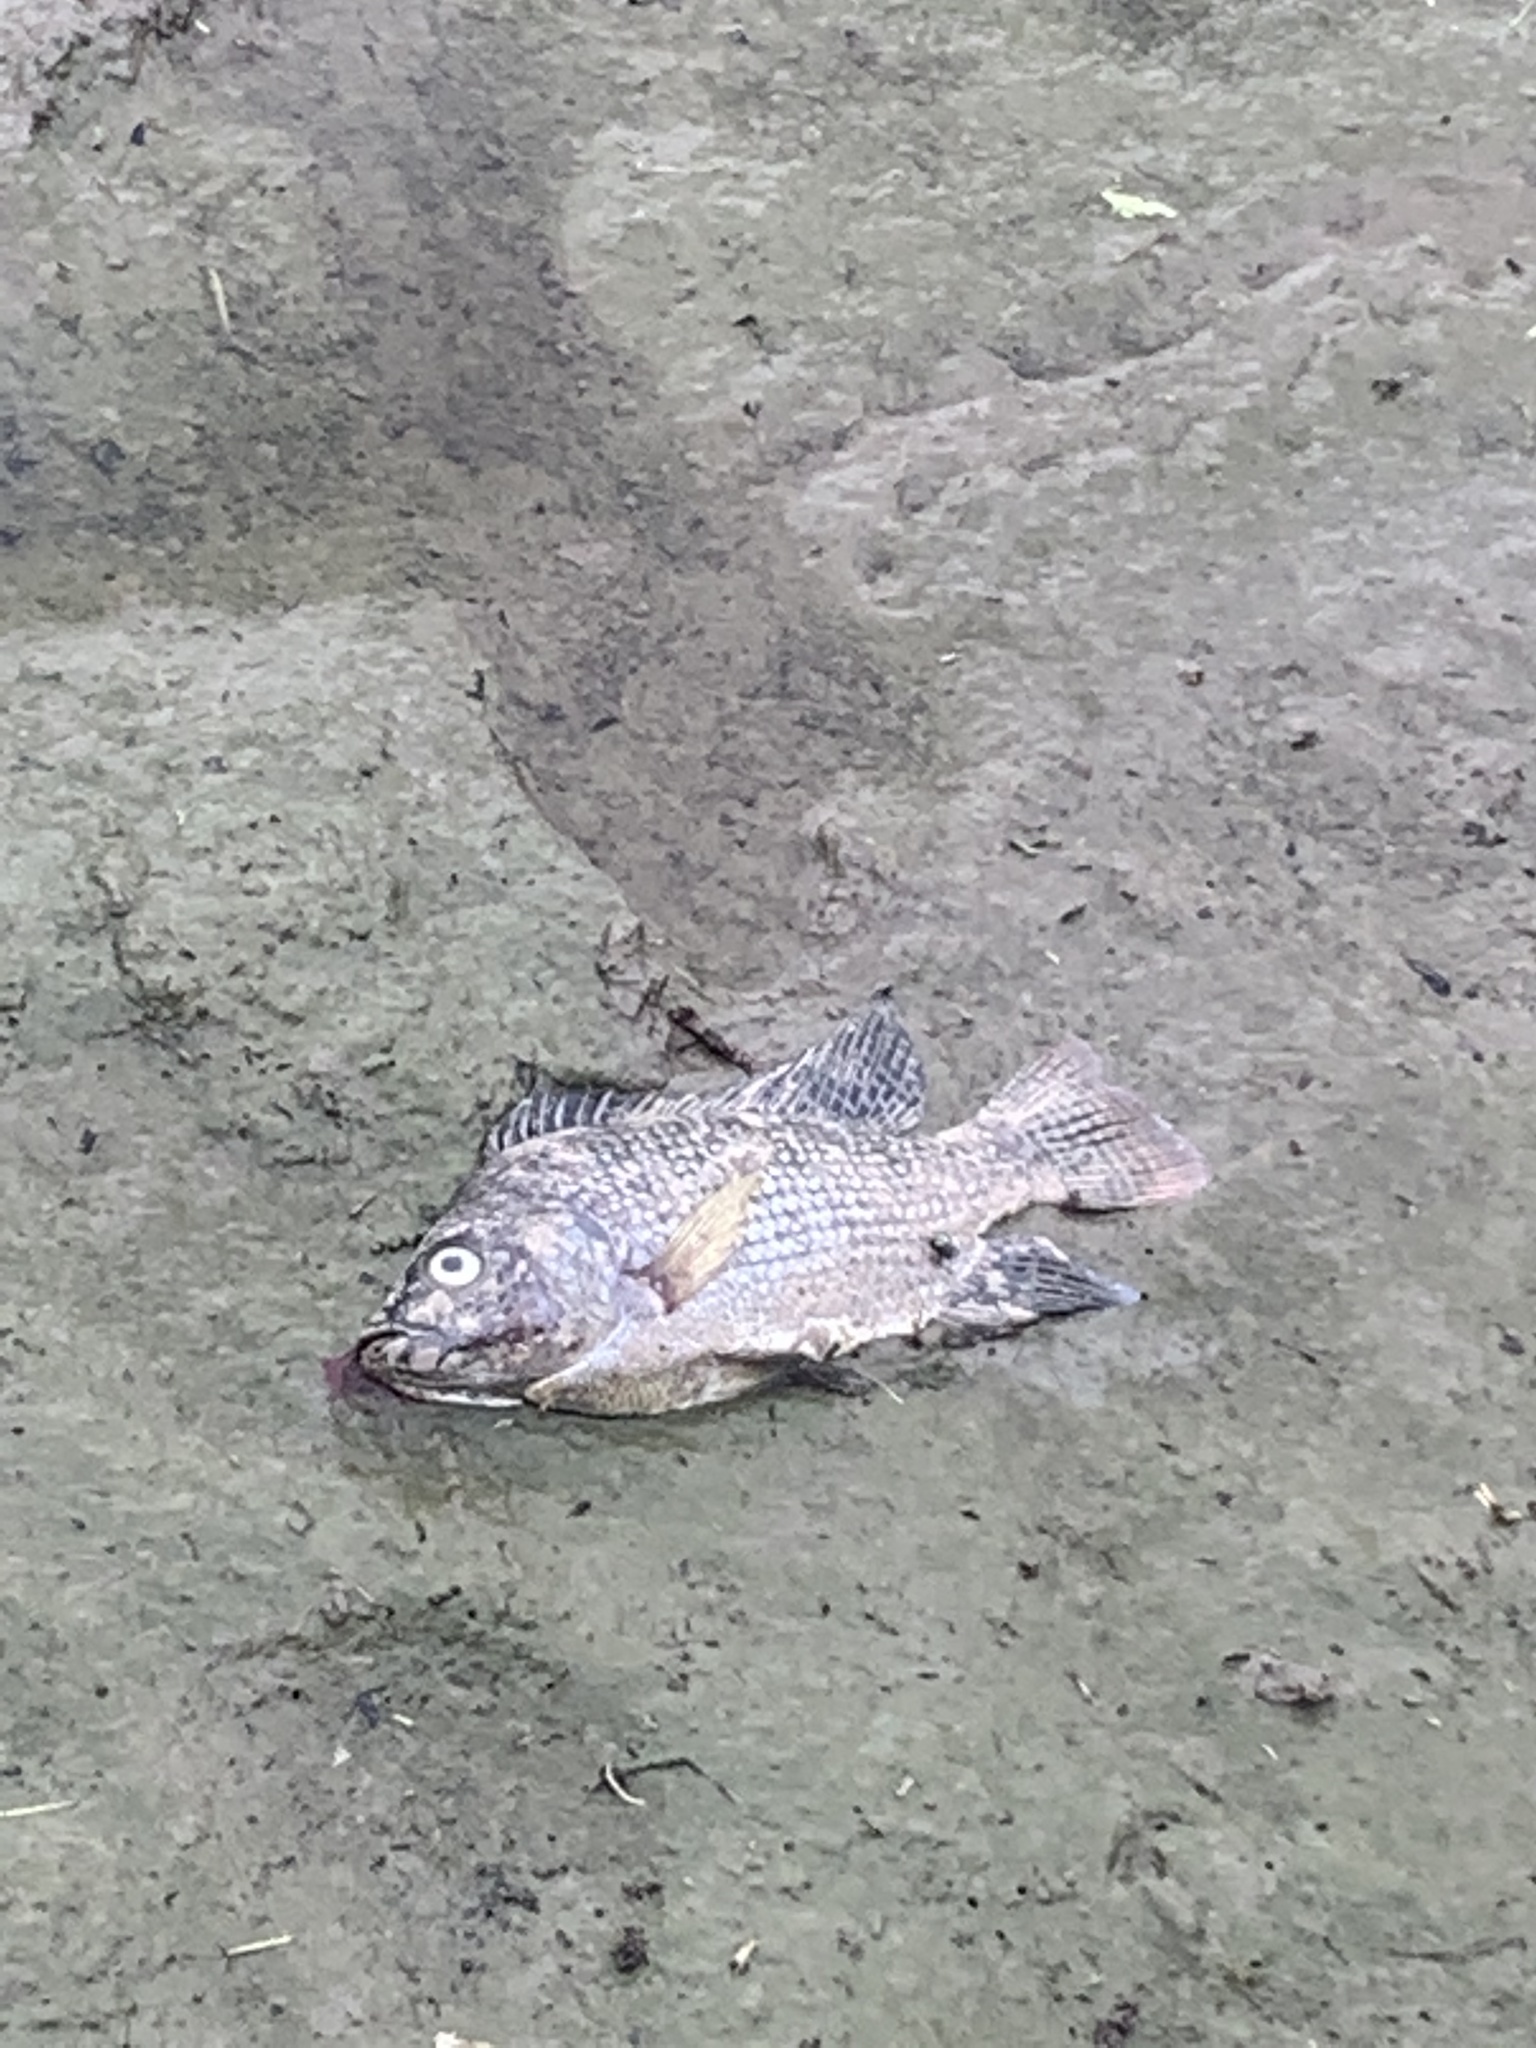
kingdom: Animalia
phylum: Chordata
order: Perciformes
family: Cichlidae
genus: Oreochromis
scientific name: Oreochromis niloticus
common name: Nile tilapia
